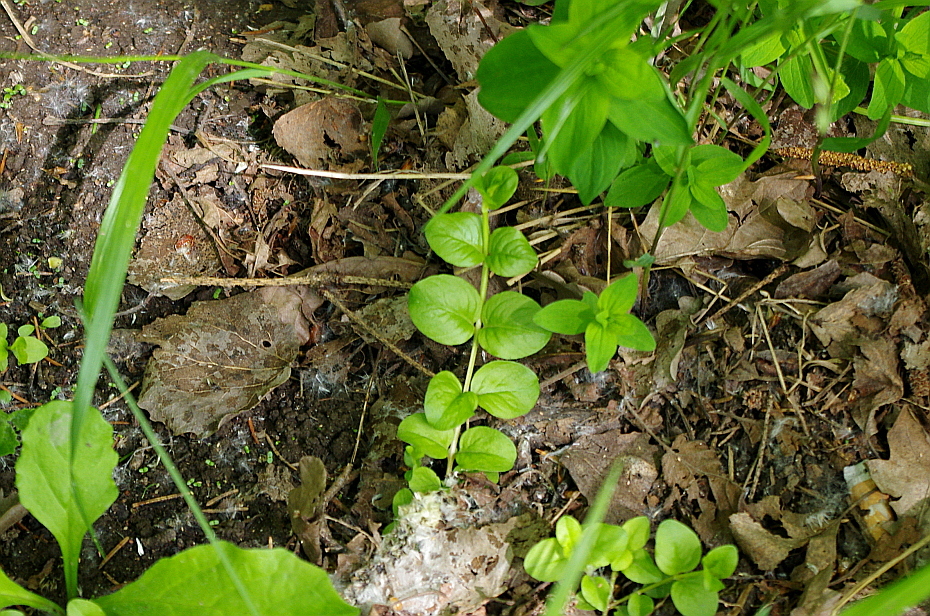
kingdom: Plantae
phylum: Tracheophyta
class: Magnoliopsida
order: Ericales
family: Primulaceae
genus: Lysimachia
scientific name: Lysimachia nummularia
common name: Moneywort
